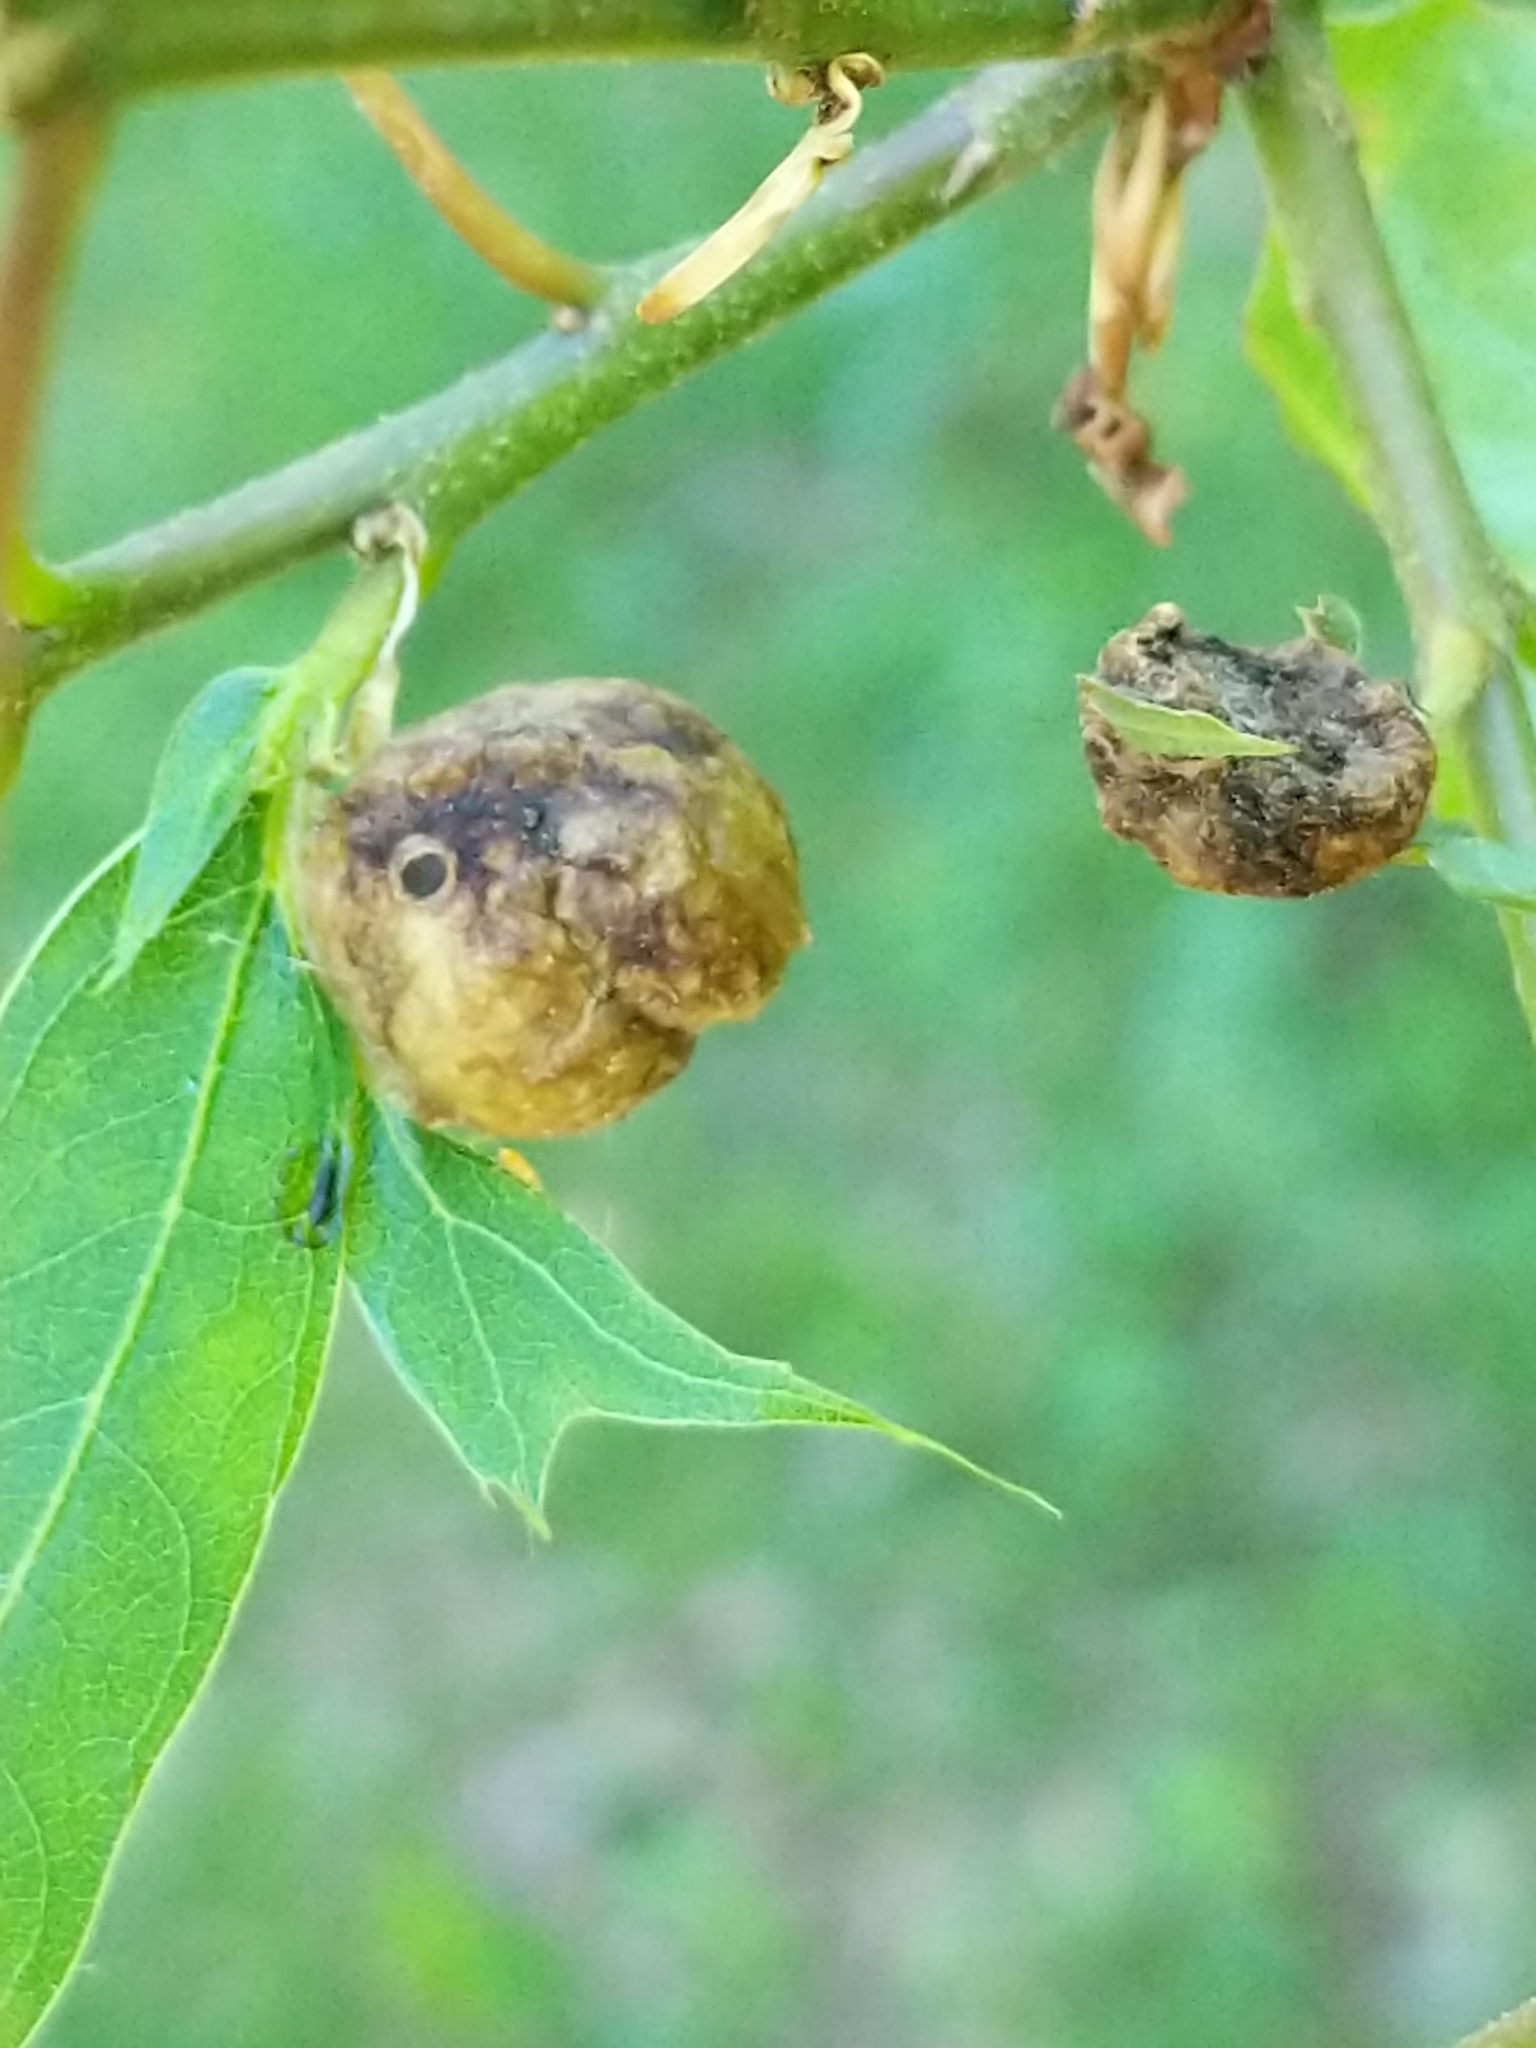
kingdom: Animalia
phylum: Arthropoda
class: Insecta
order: Hymenoptera
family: Cynipidae
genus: Dryocosmus
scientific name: Dryocosmus quercuspalustris
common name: Succulent oak gall wasp
